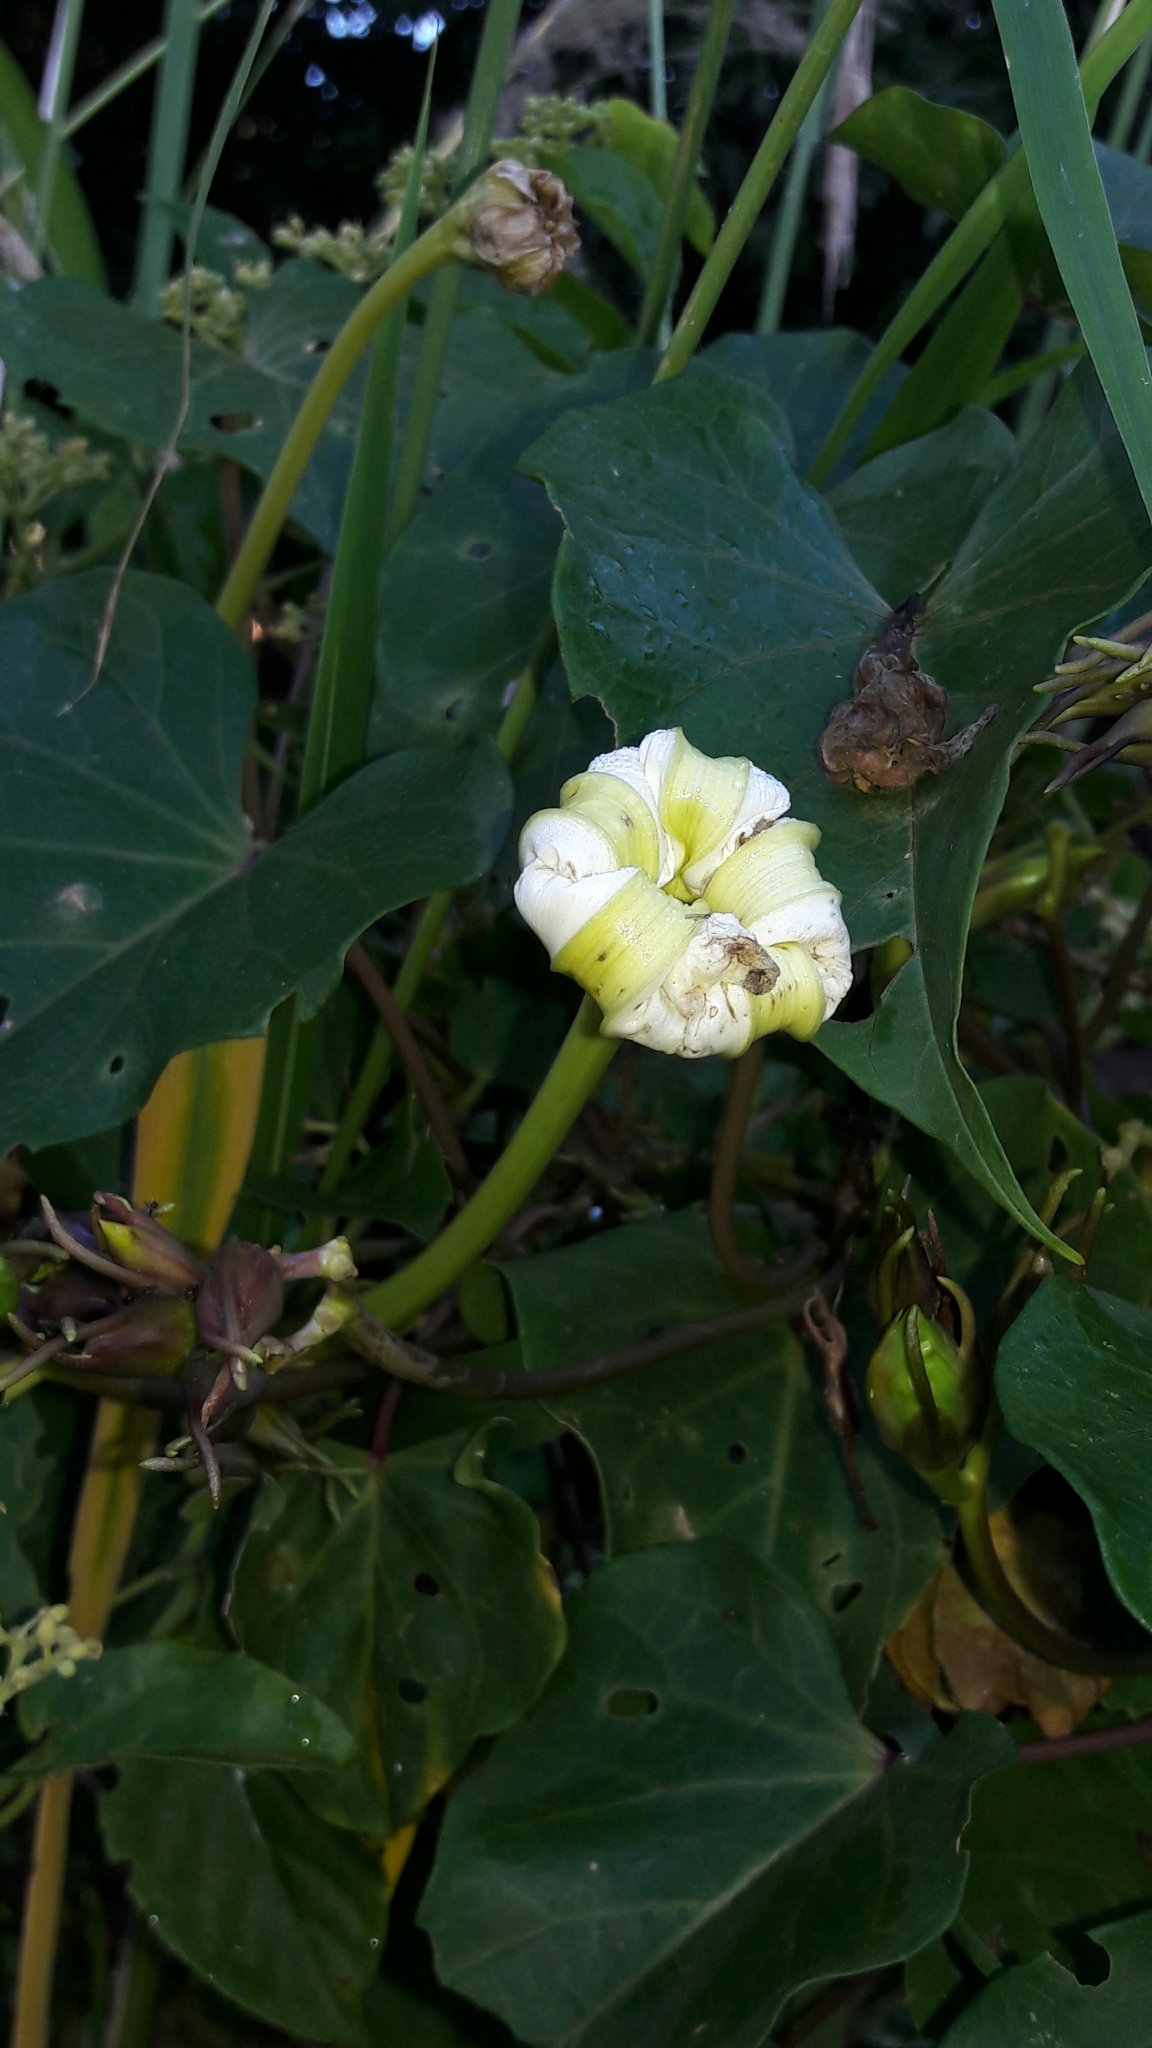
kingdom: Plantae
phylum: Tracheophyta
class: Magnoliopsida
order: Solanales
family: Convolvulaceae
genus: Ipomoea
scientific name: Ipomoea alba
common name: Moonflower
